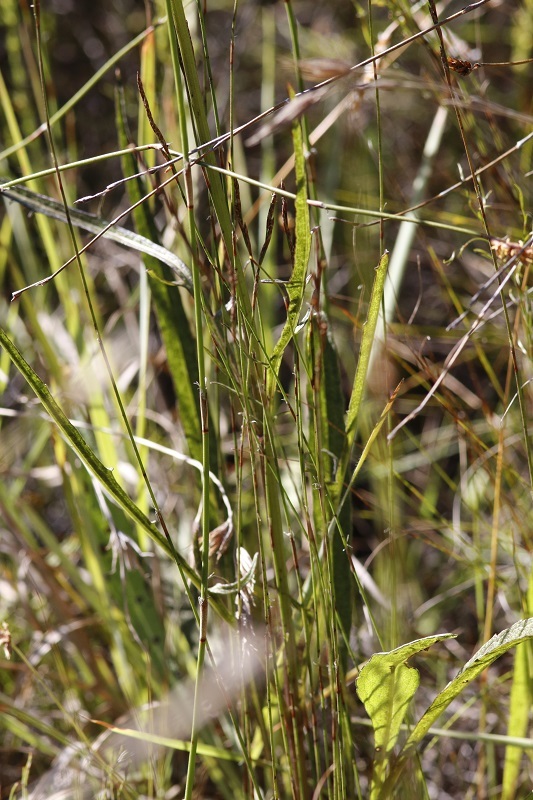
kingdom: Plantae
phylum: Tracheophyta
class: Magnoliopsida
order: Dipsacales
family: Caprifoliaceae
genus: Cephalaria
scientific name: Cephalaria humilis
